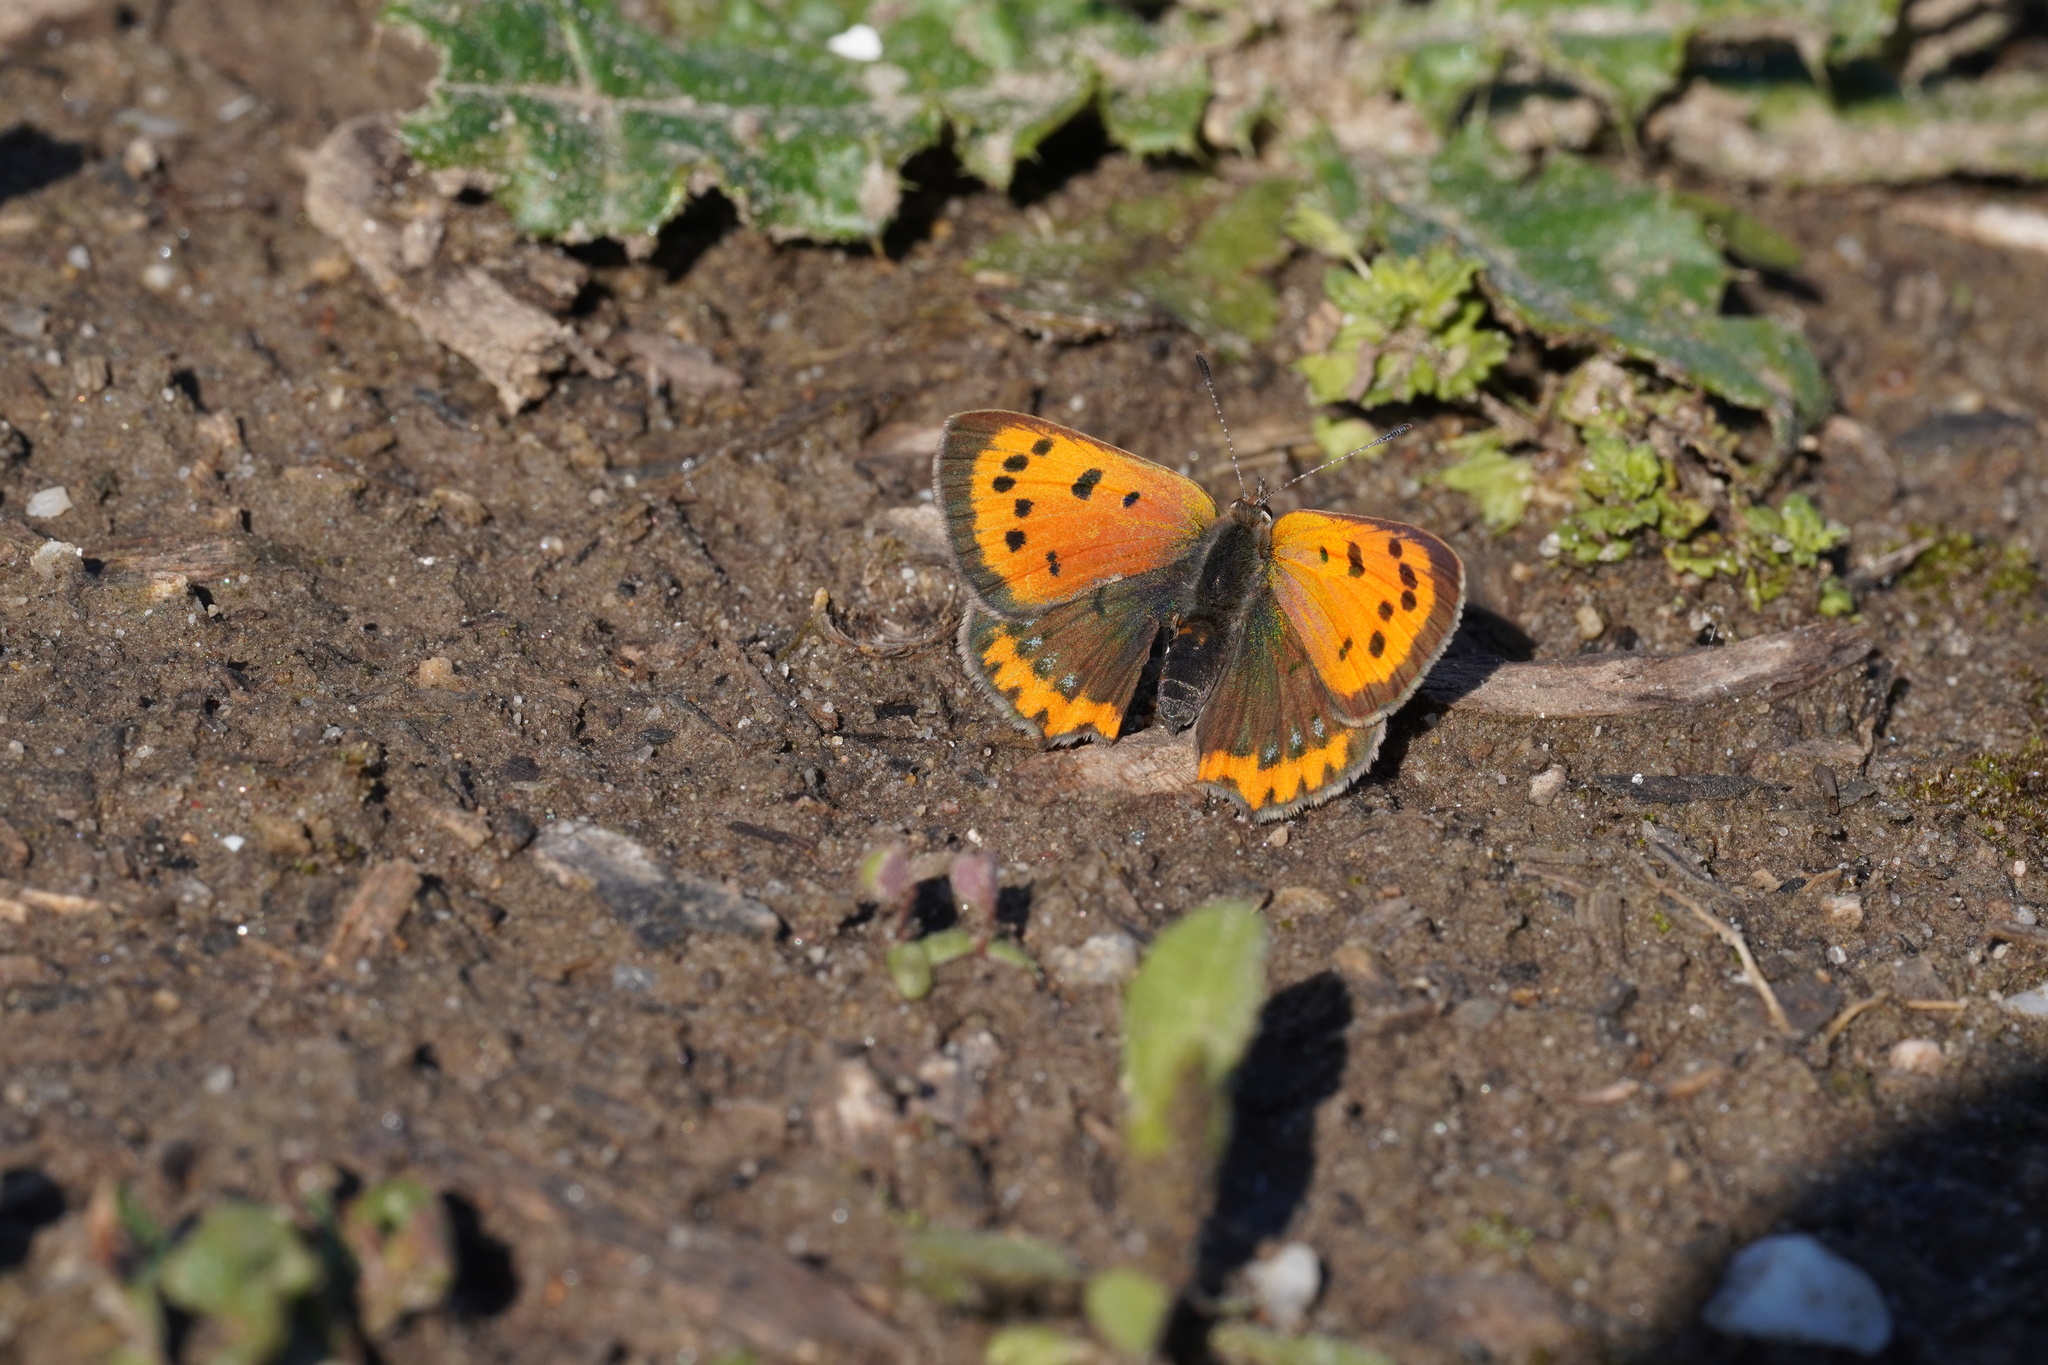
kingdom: Animalia
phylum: Arthropoda
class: Insecta
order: Lepidoptera
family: Lycaenidae
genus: Lycaena
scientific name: Lycaena phlaeas
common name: Small copper
